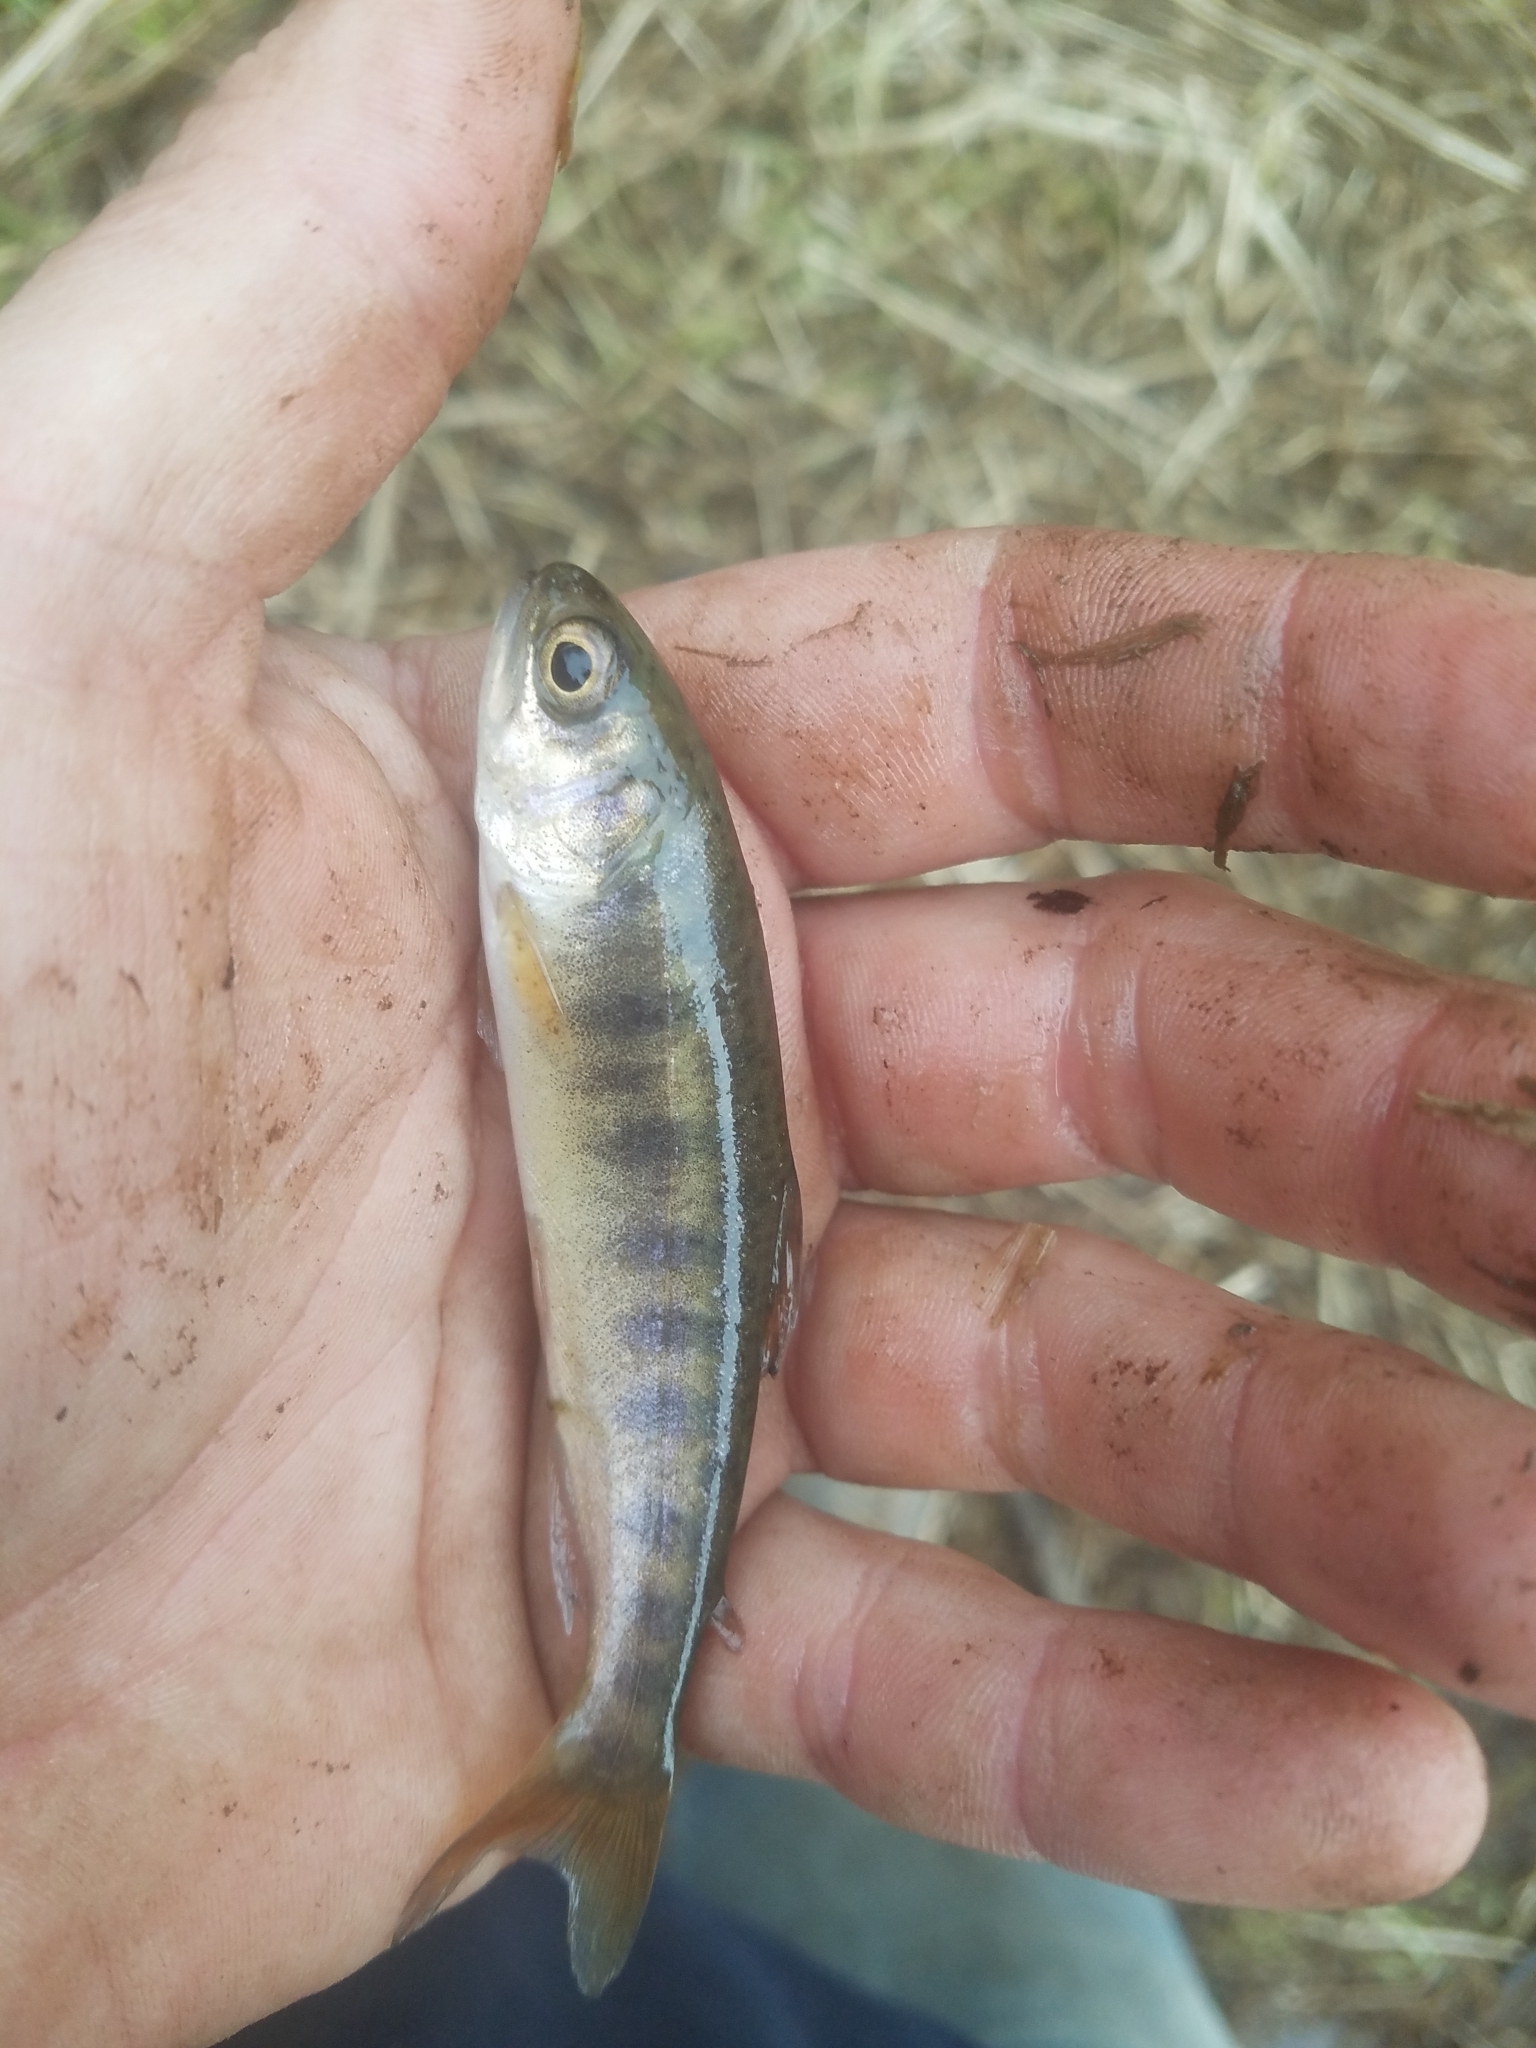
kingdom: Animalia
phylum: Chordata
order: Salmoniformes
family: Salmonidae
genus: Oncorhynchus
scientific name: Oncorhynchus kisutch
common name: Coho salmon
